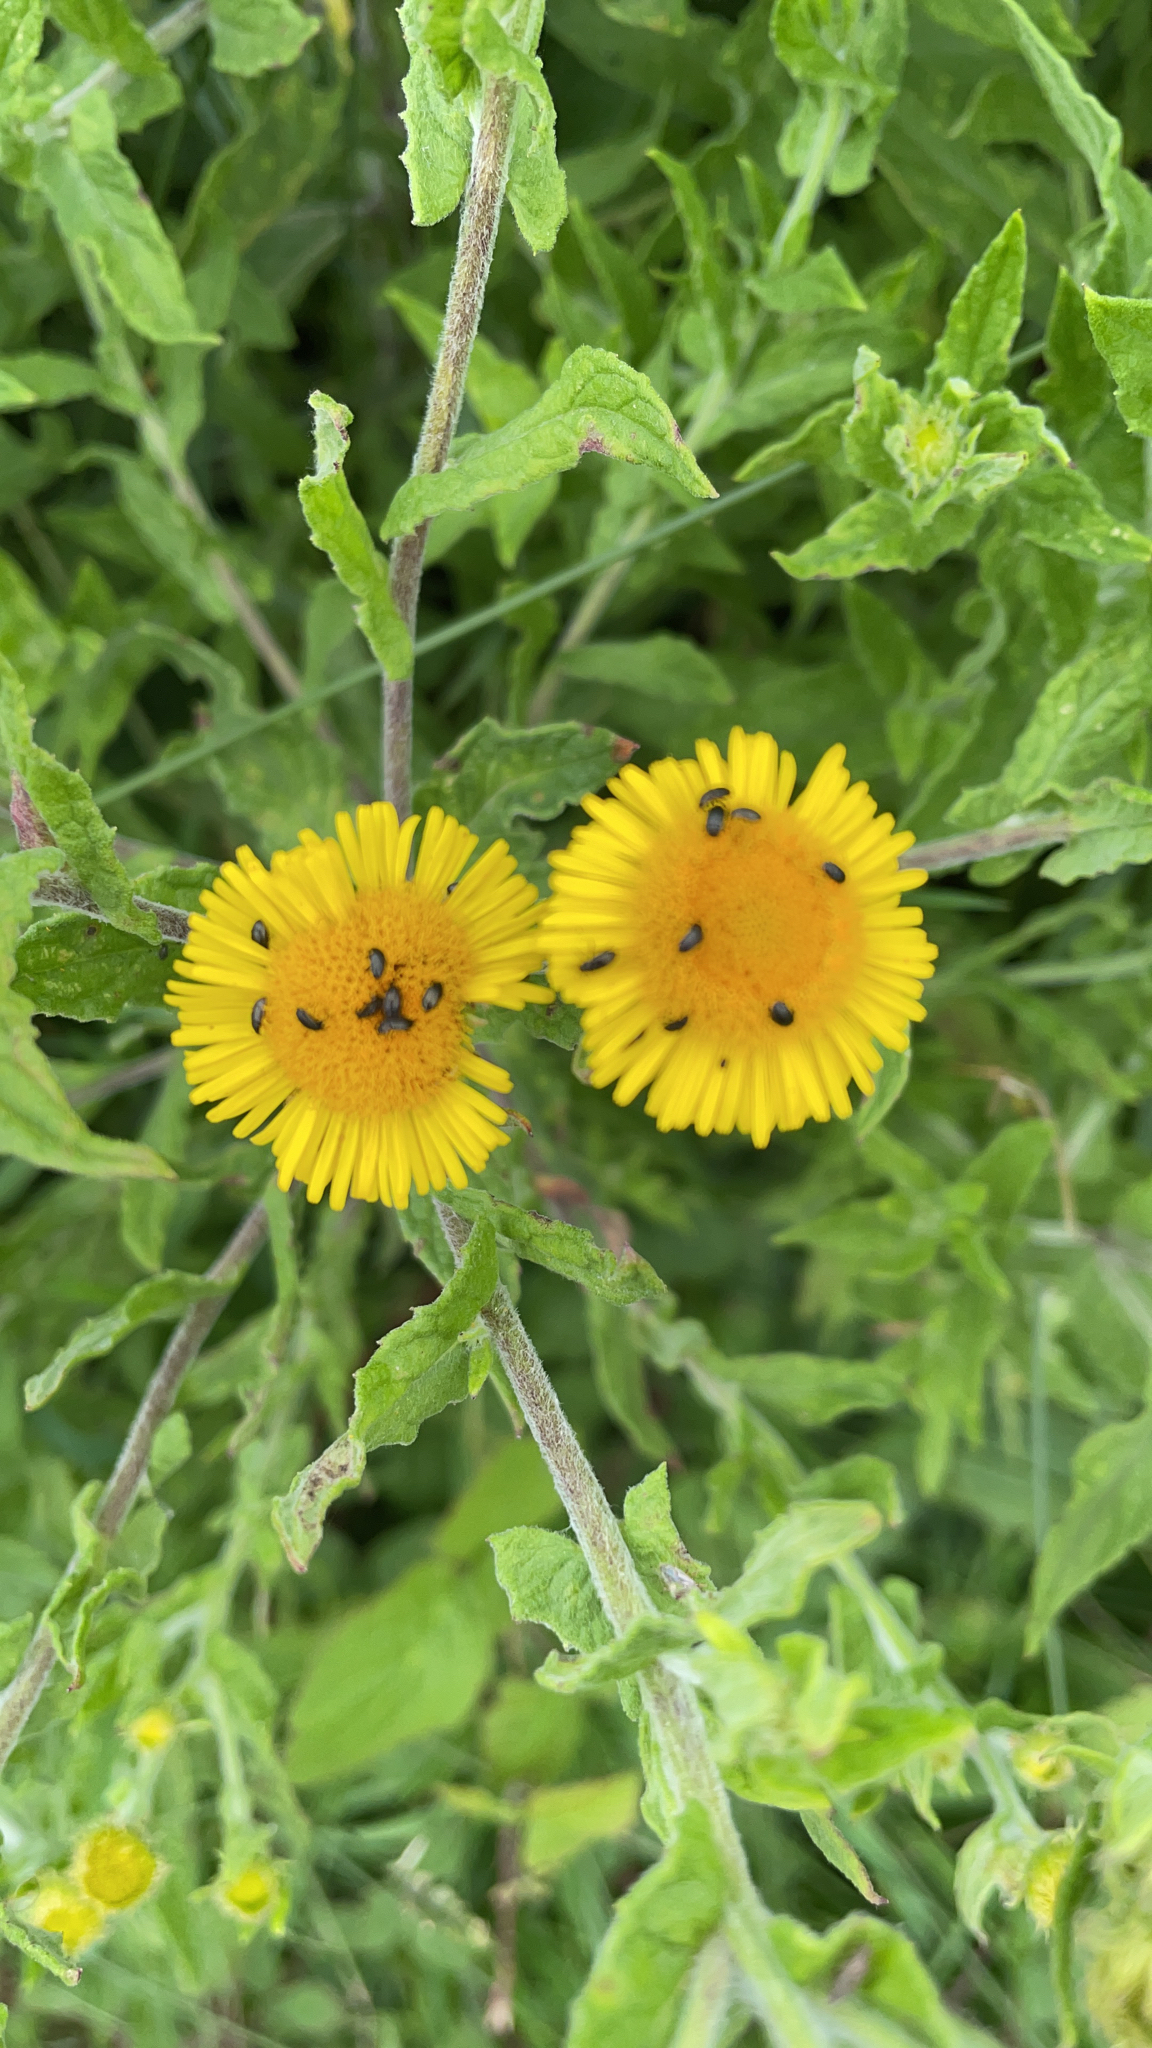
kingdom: Plantae
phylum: Tracheophyta
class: Magnoliopsida
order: Asterales
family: Asteraceae
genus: Pulicaria
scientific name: Pulicaria dysenterica
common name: Common fleabane
